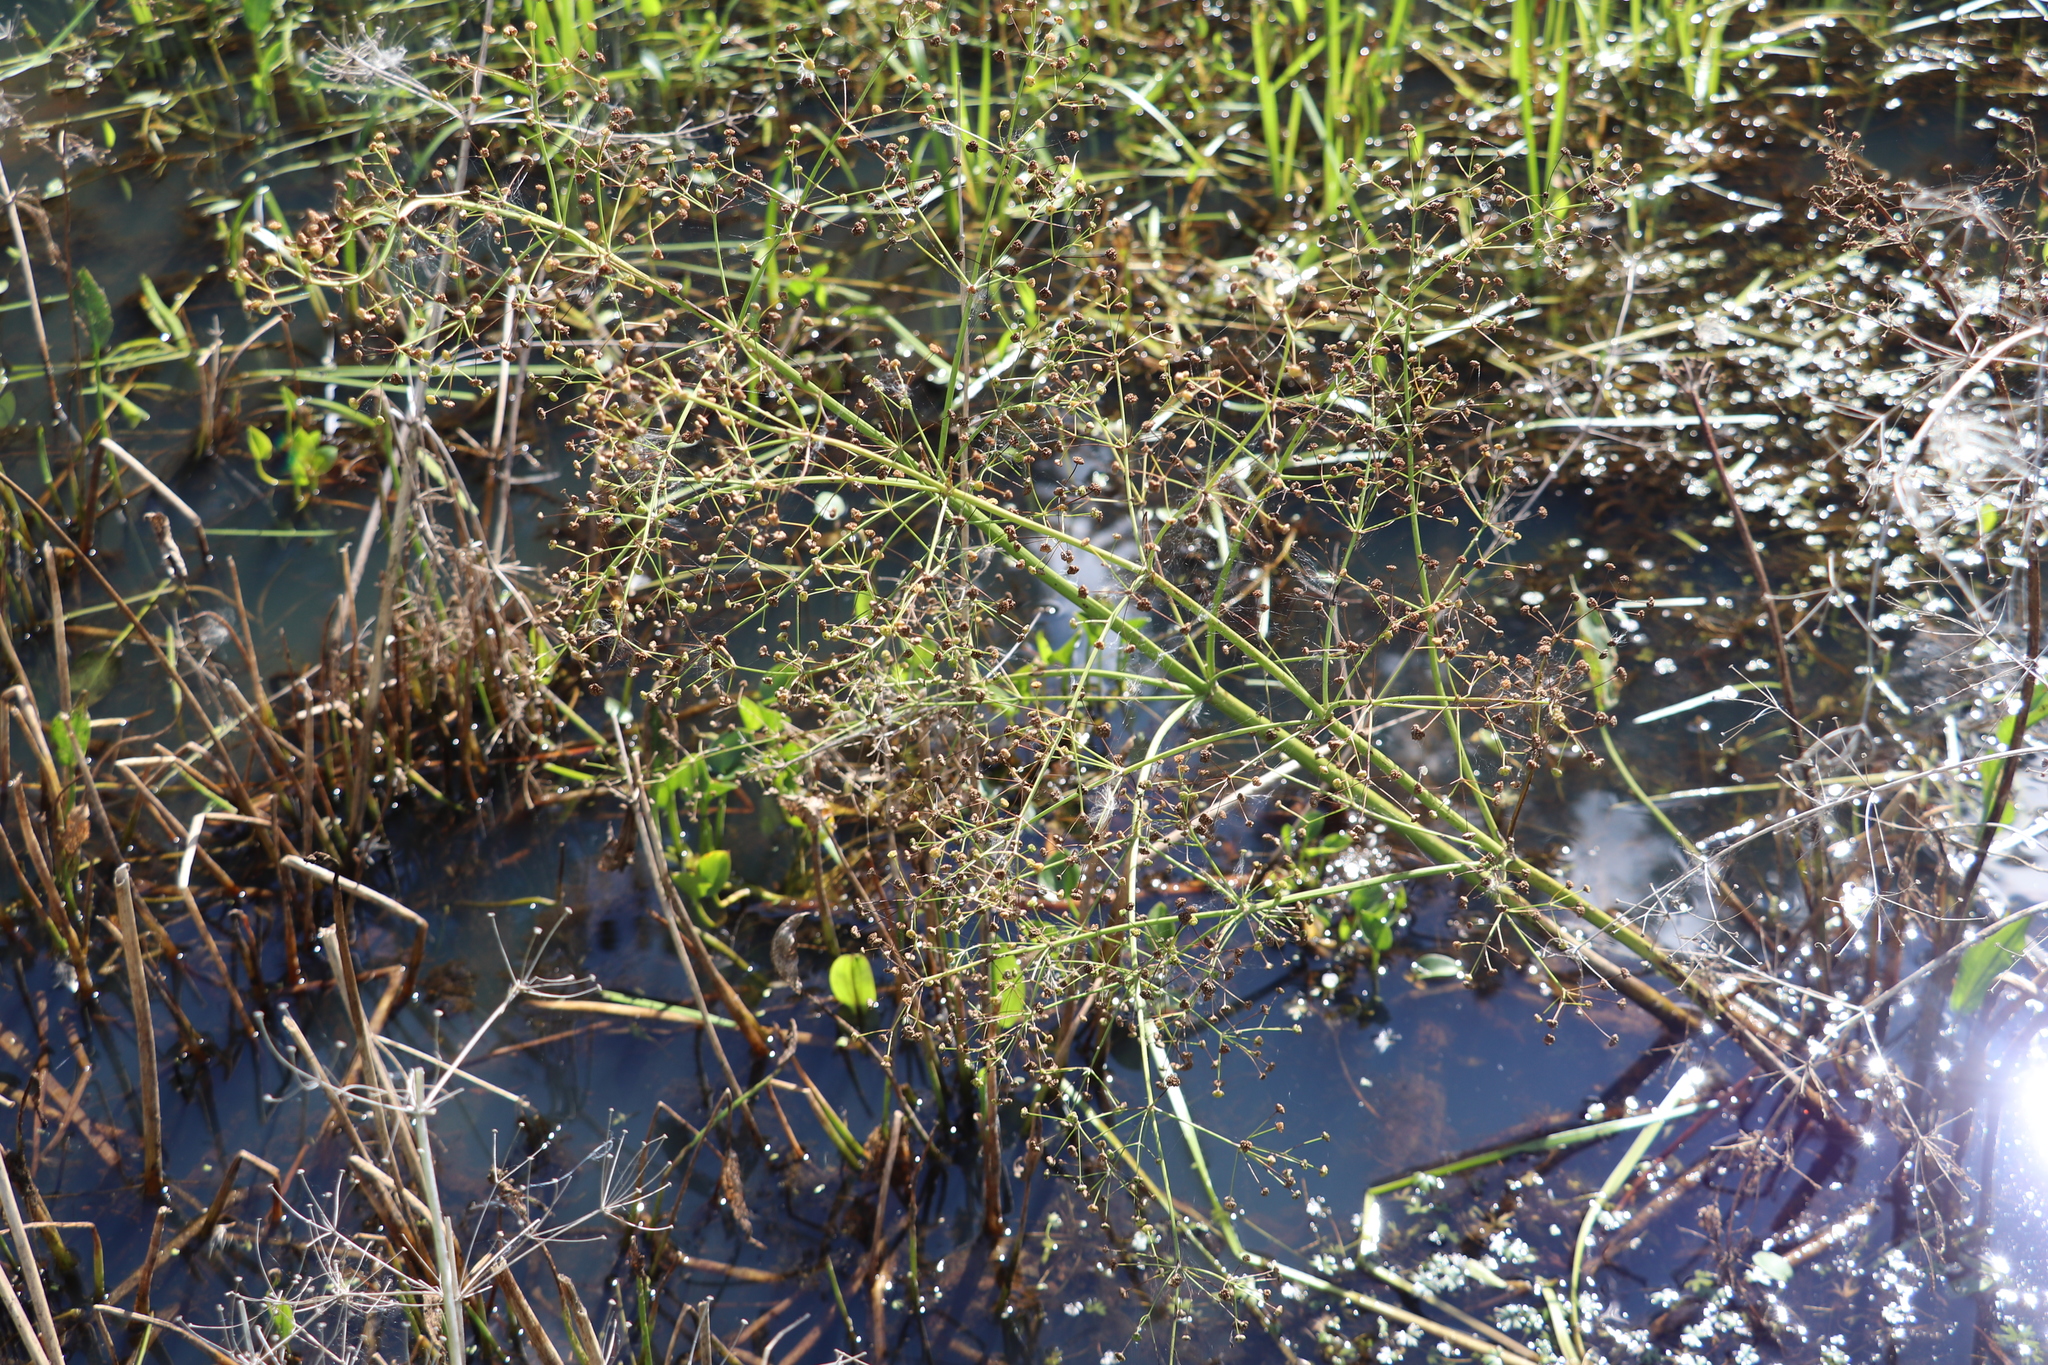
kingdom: Plantae
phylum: Tracheophyta
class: Liliopsida
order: Alismatales
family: Alismataceae
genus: Alisma
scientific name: Alisma plantago-aquatica
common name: Water-plantain
